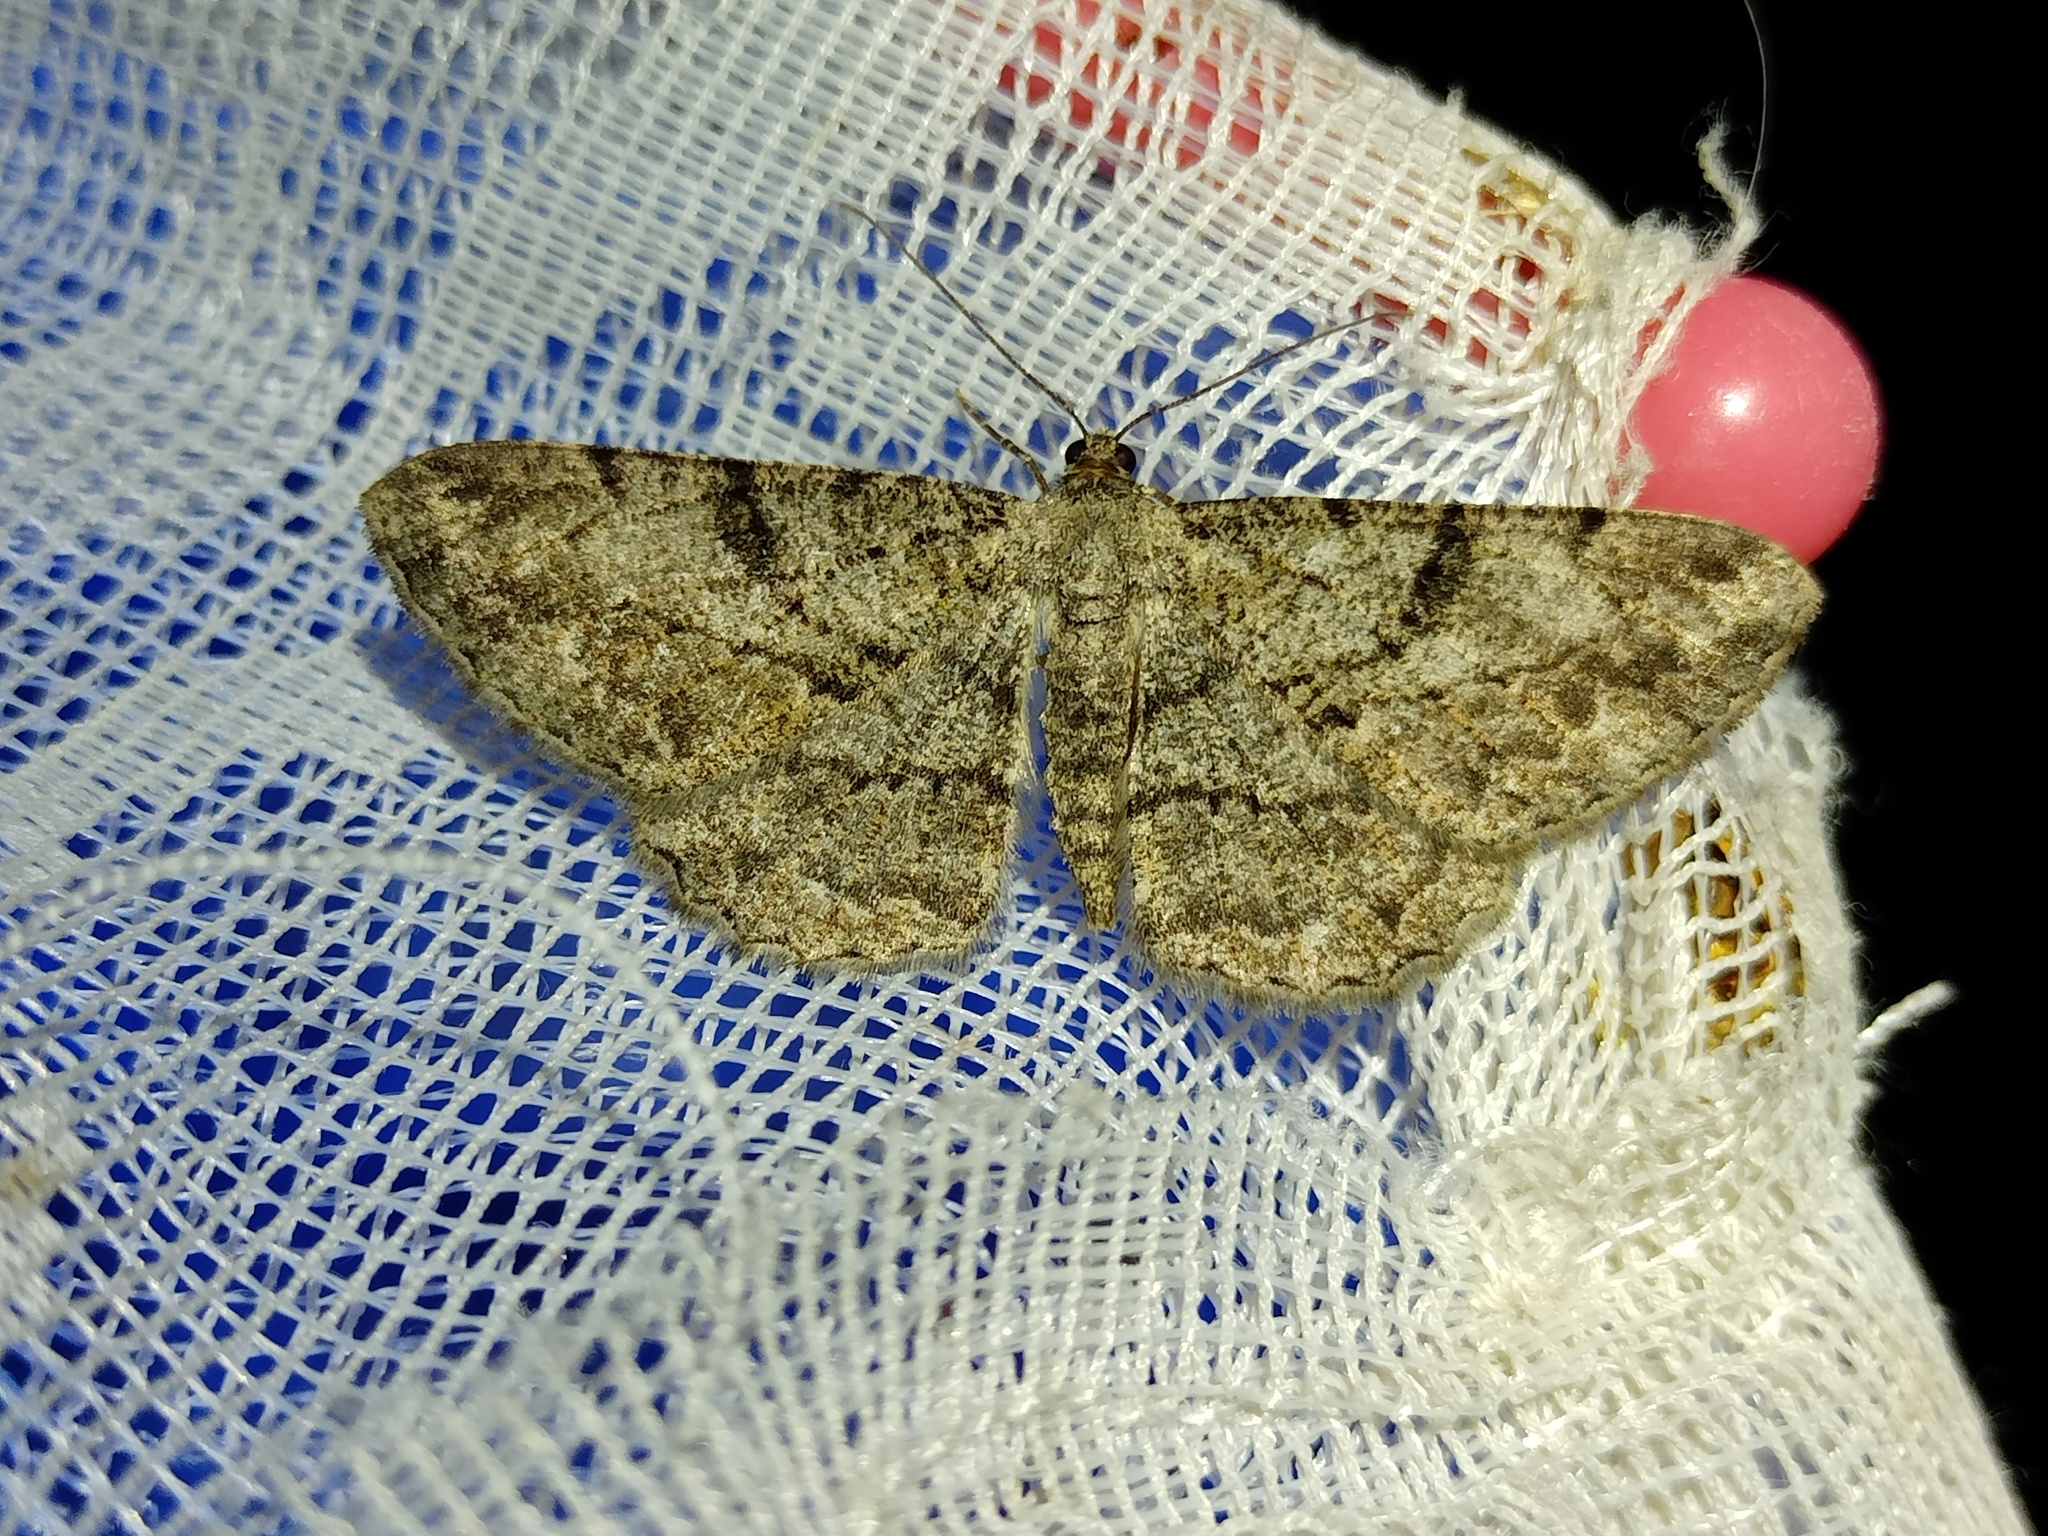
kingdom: Animalia
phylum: Arthropoda
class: Insecta
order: Lepidoptera
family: Geometridae
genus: Peribatodes
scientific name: Peribatodes rhomboidaria
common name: Willow beauty
